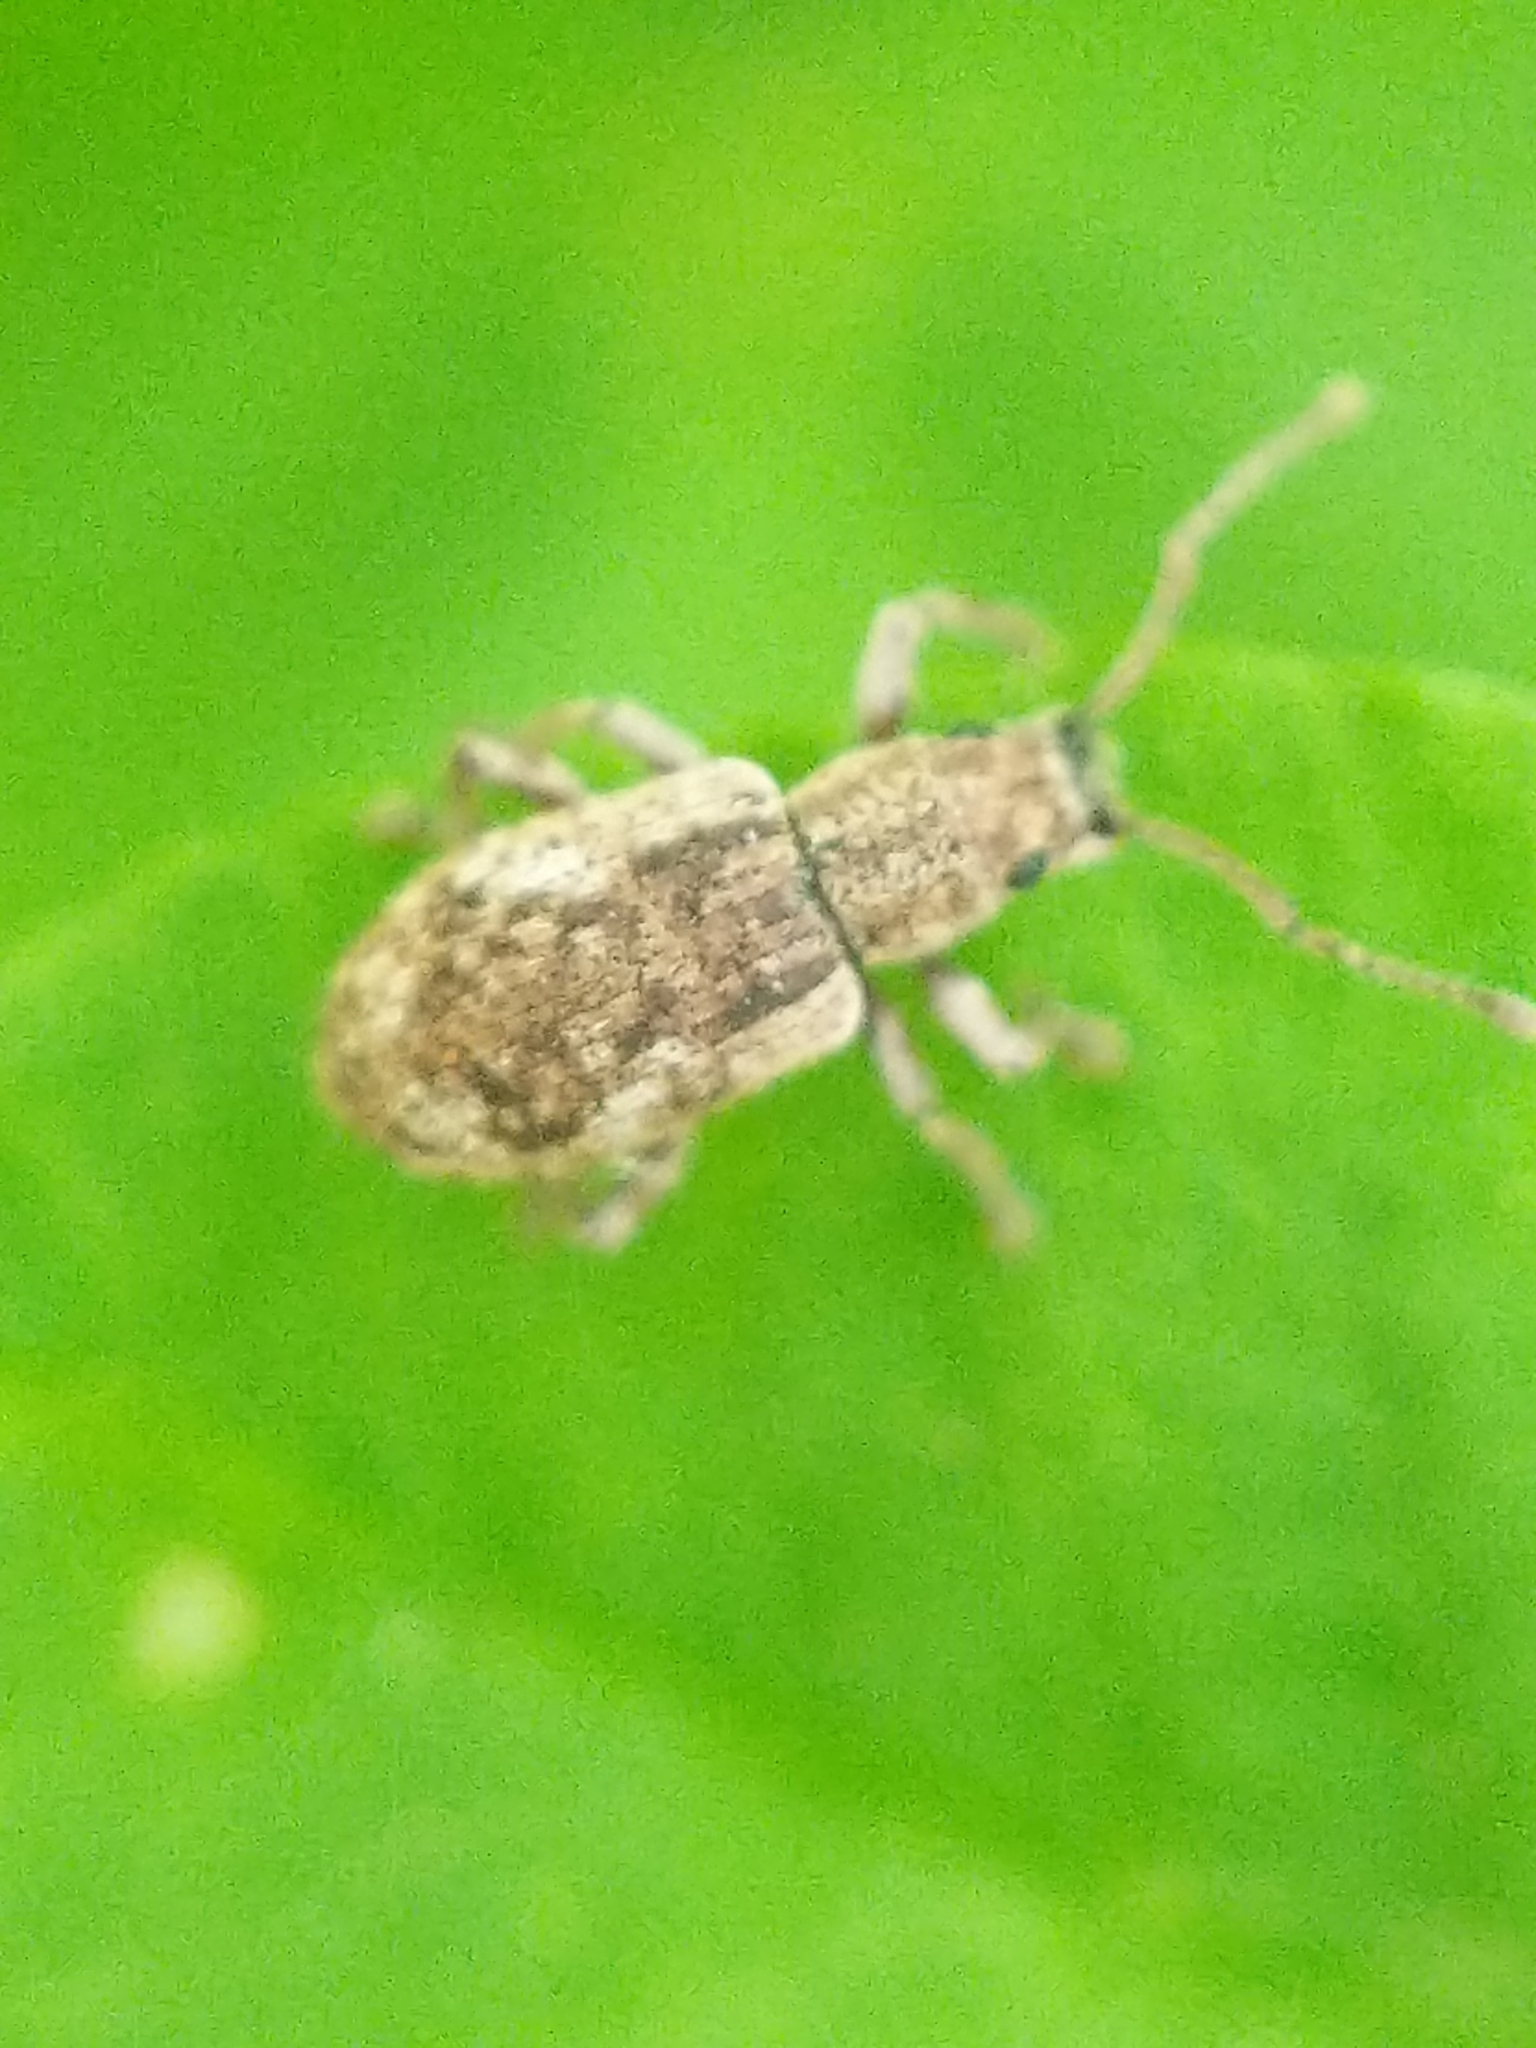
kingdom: Animalia
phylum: Arthropoda
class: Insecta
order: Coleoptera
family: Curculionidae
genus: Pseudoedophrys
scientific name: Pseudoedophrys hilleri
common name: Weevil
